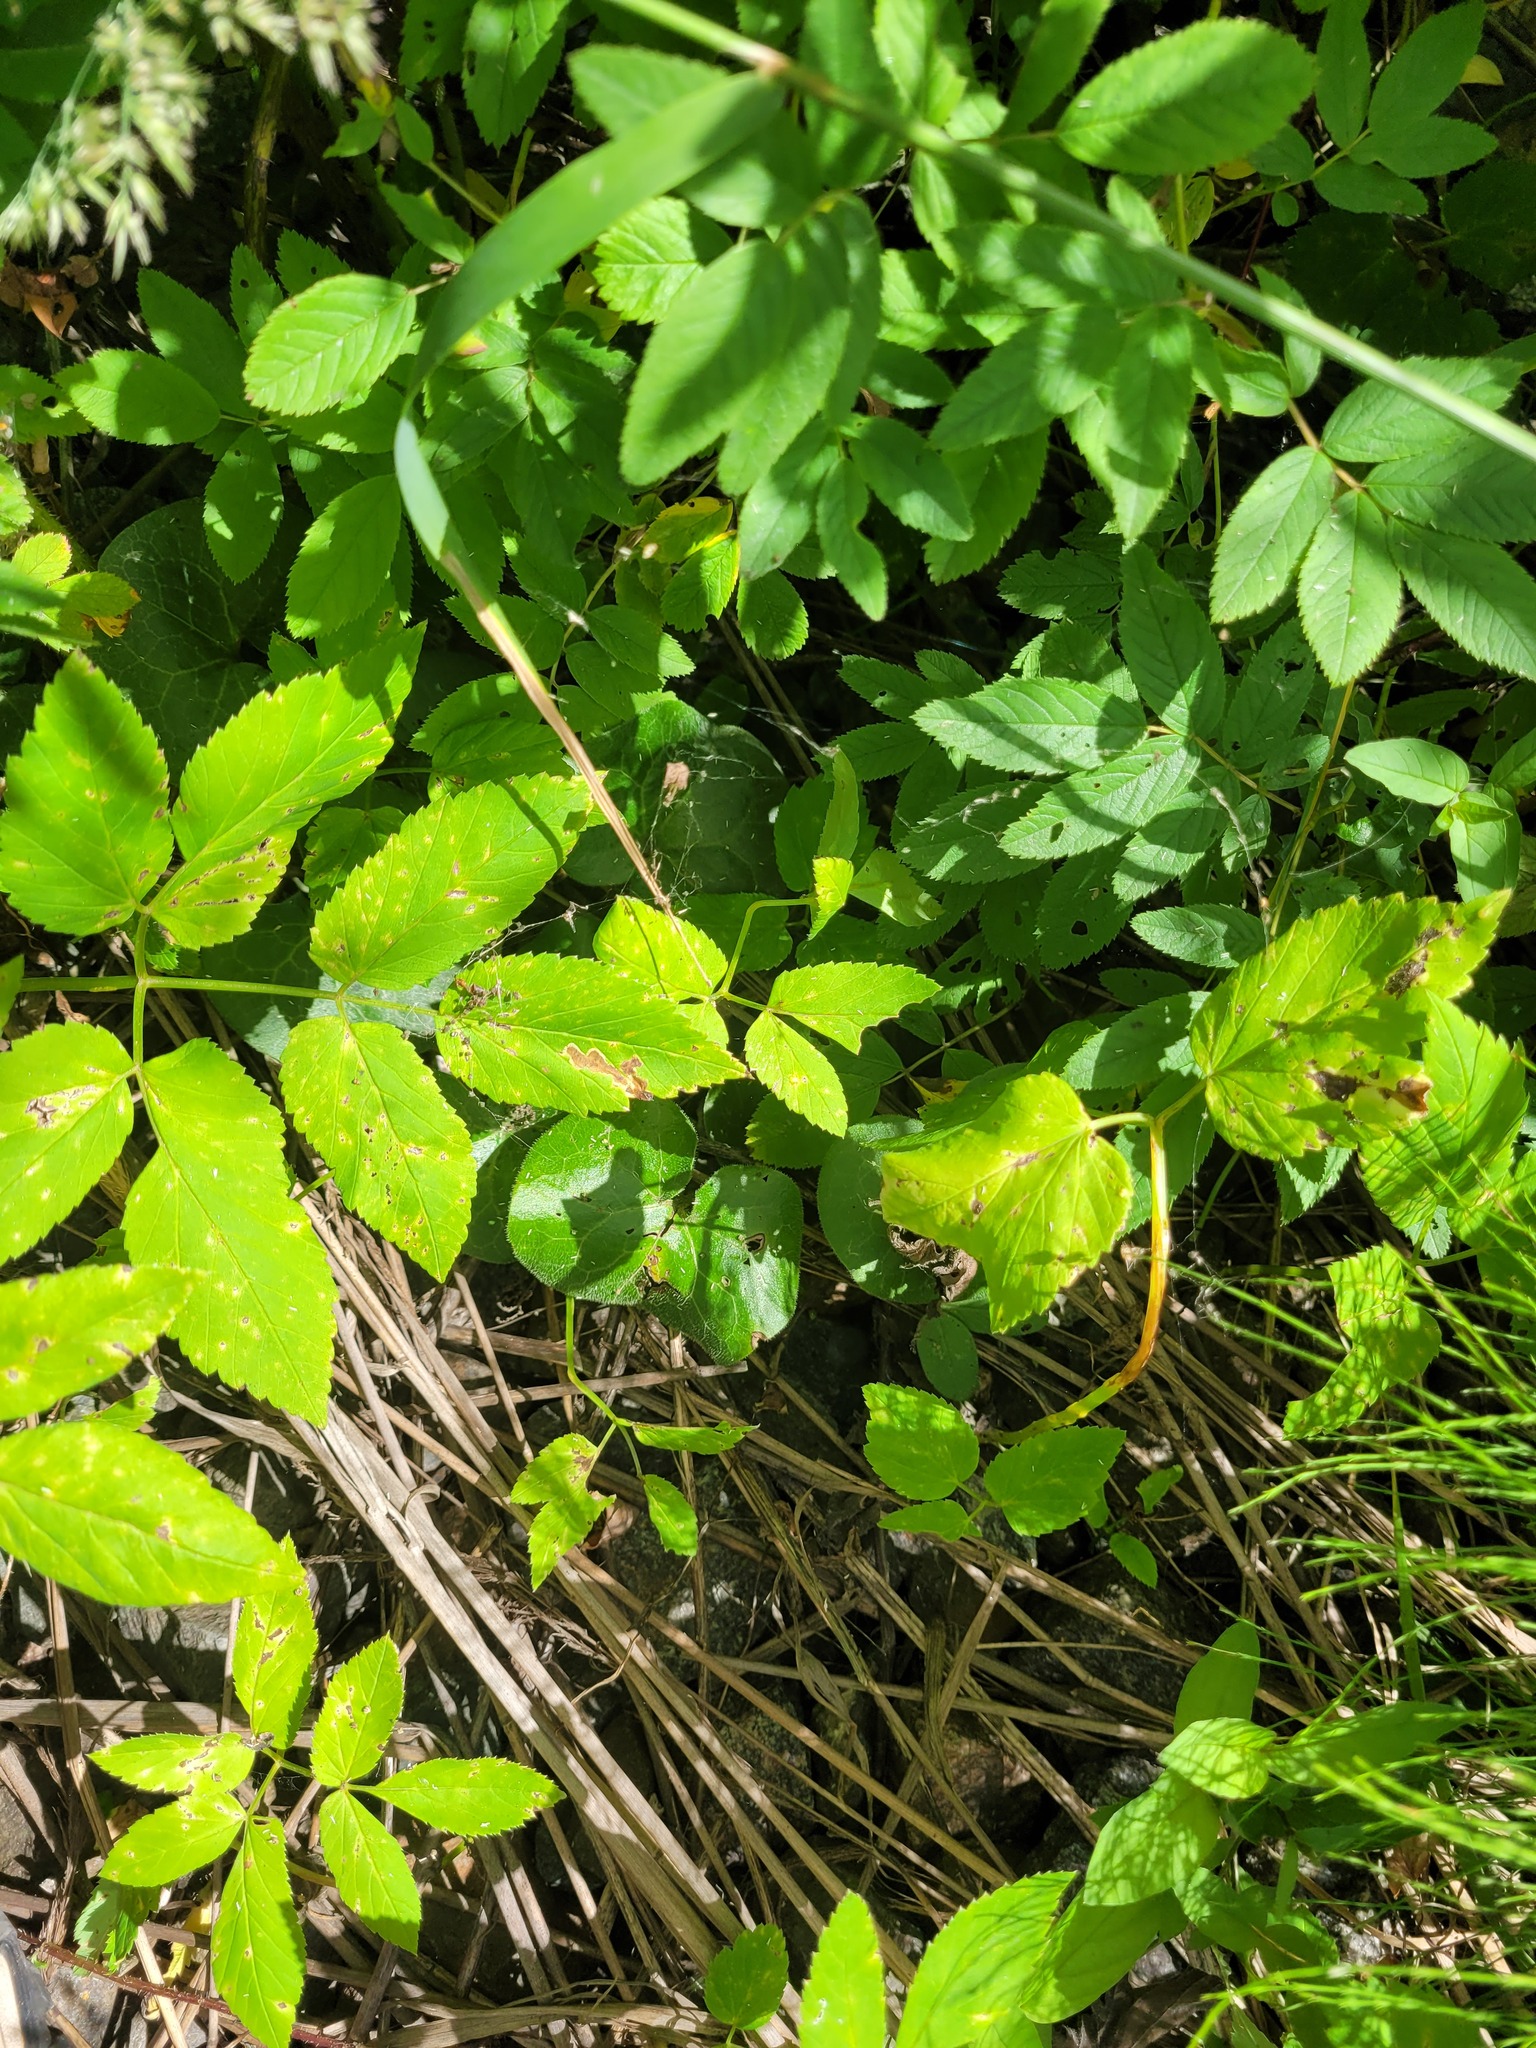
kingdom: Plantae
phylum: Tracheophyta
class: Magnoliopsida
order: Piperales
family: Aristolochiaceae
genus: Asarum
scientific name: Asarum europaeum
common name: Asarabacca
